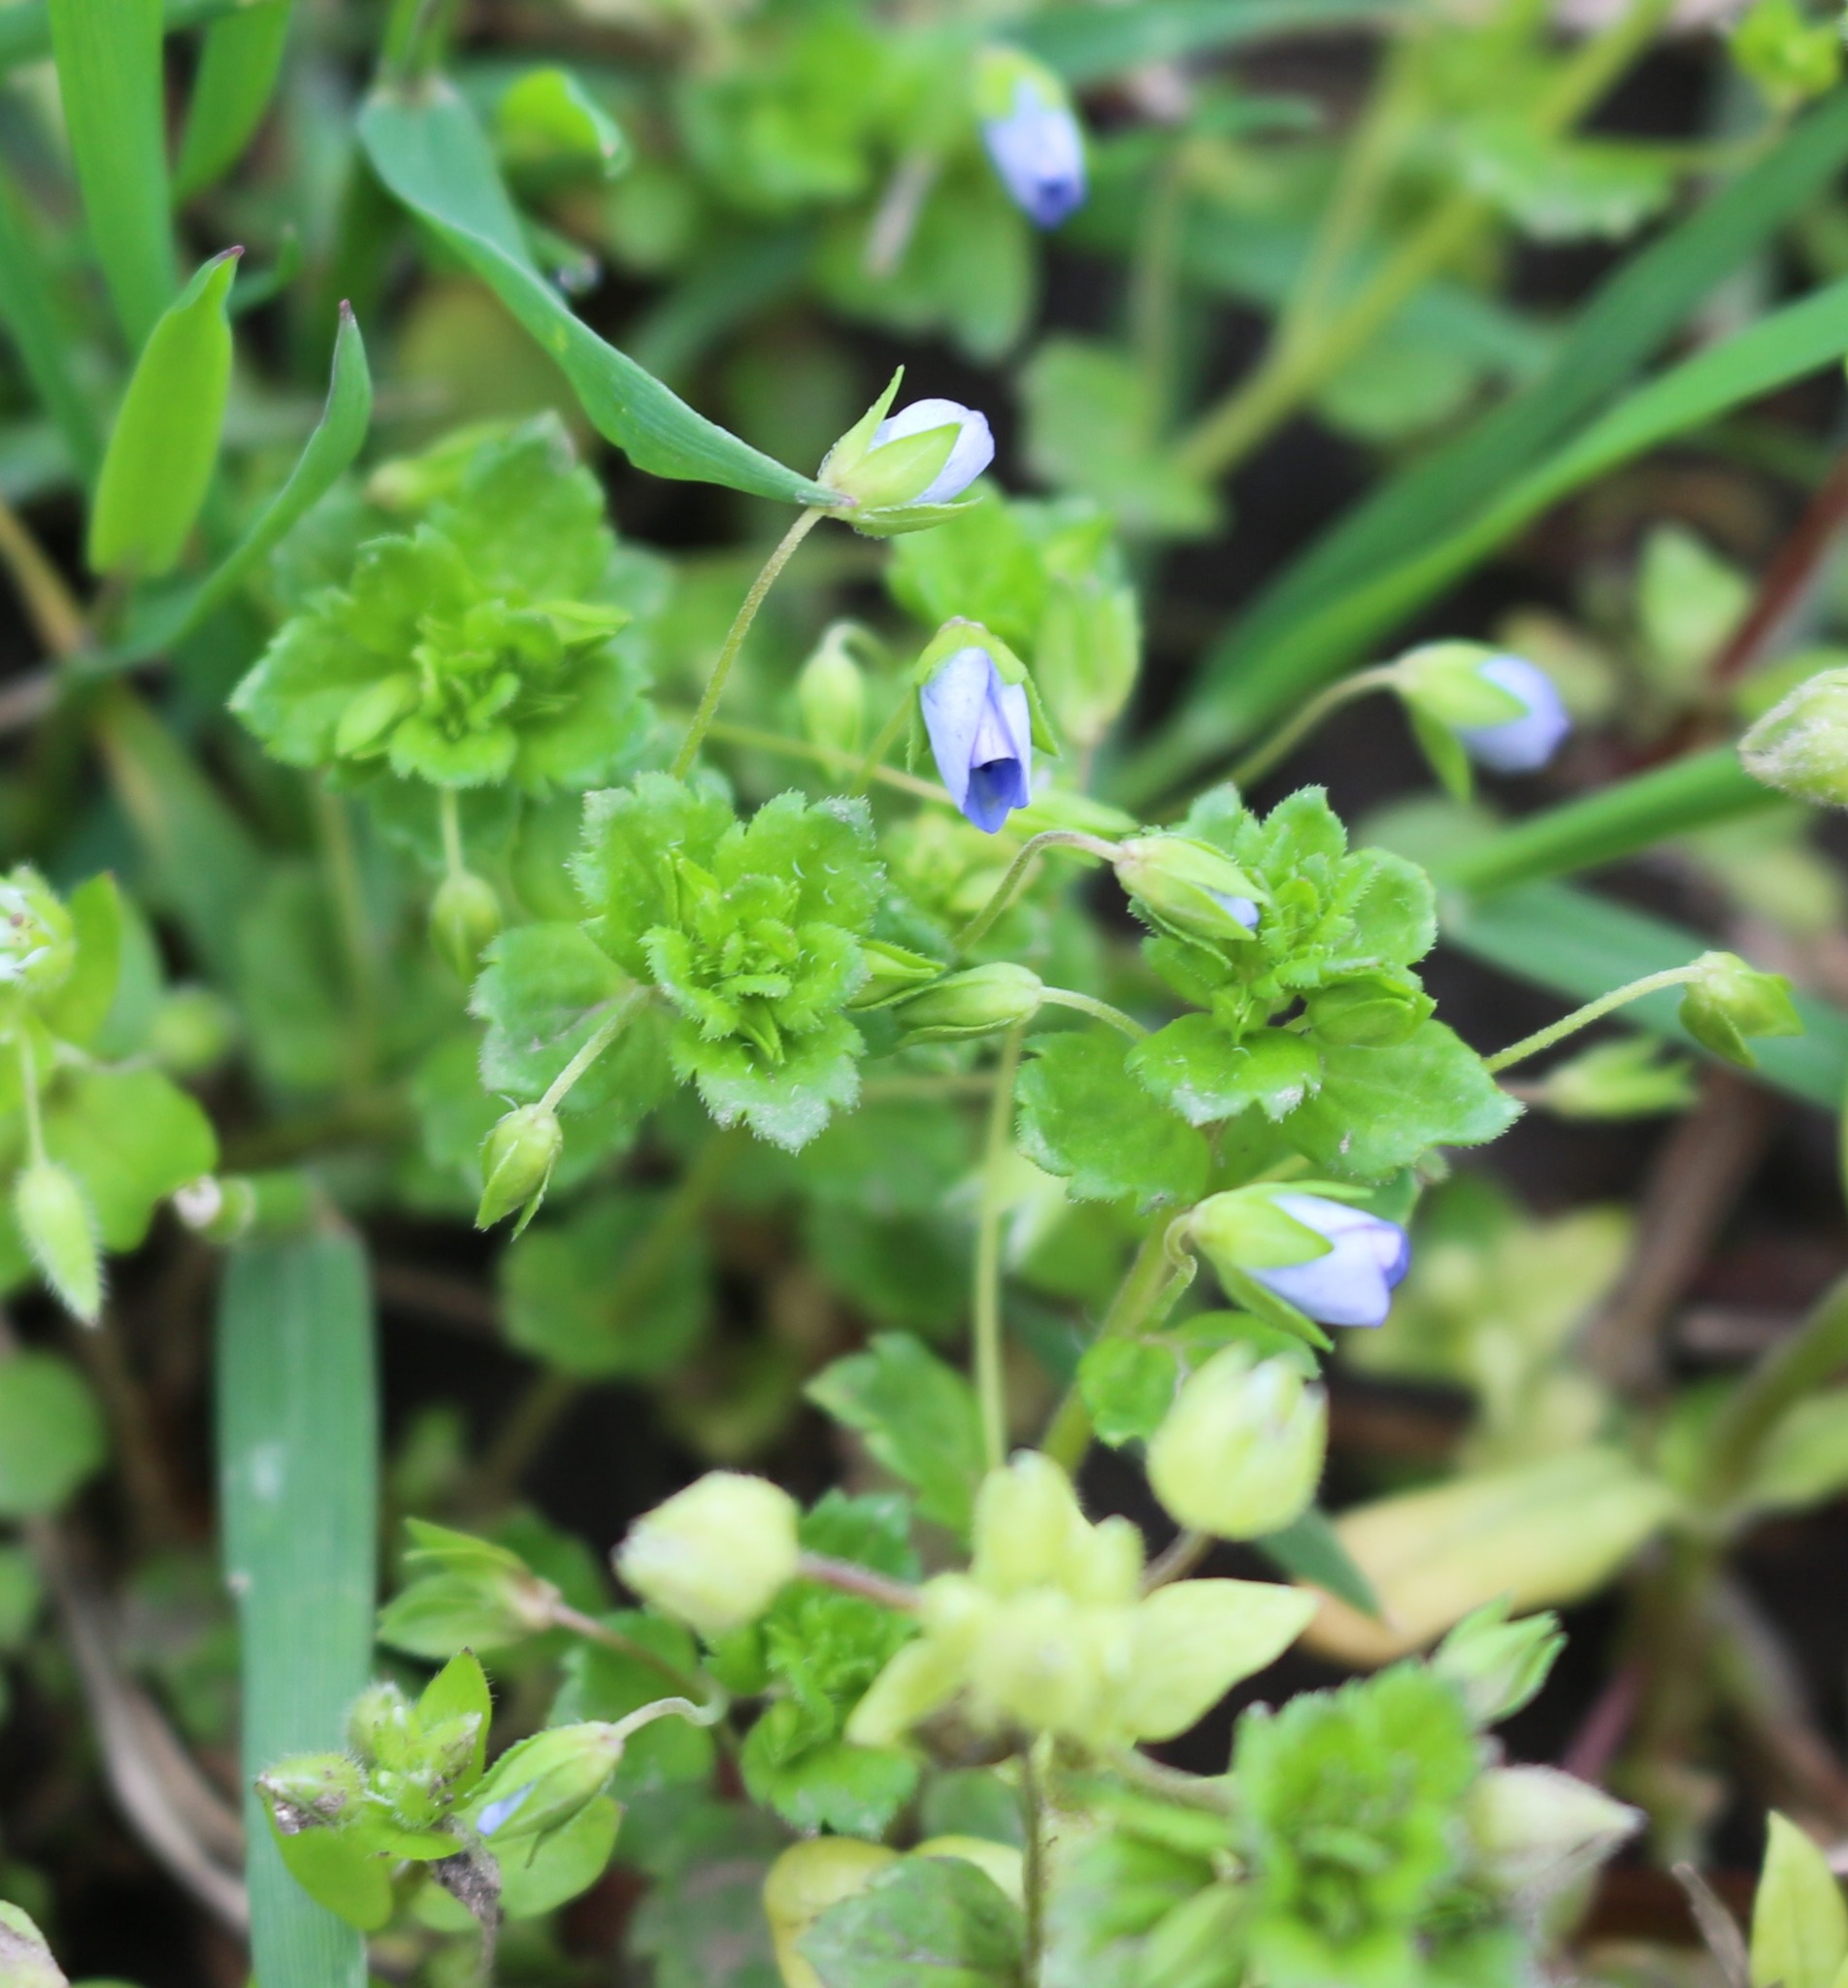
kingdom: Plantae
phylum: Tracheophyta
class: Magnoliopsida
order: Lamiales
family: Plantaginaceae
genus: Veronica
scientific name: Veronica persica
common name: Common field-speedwell
